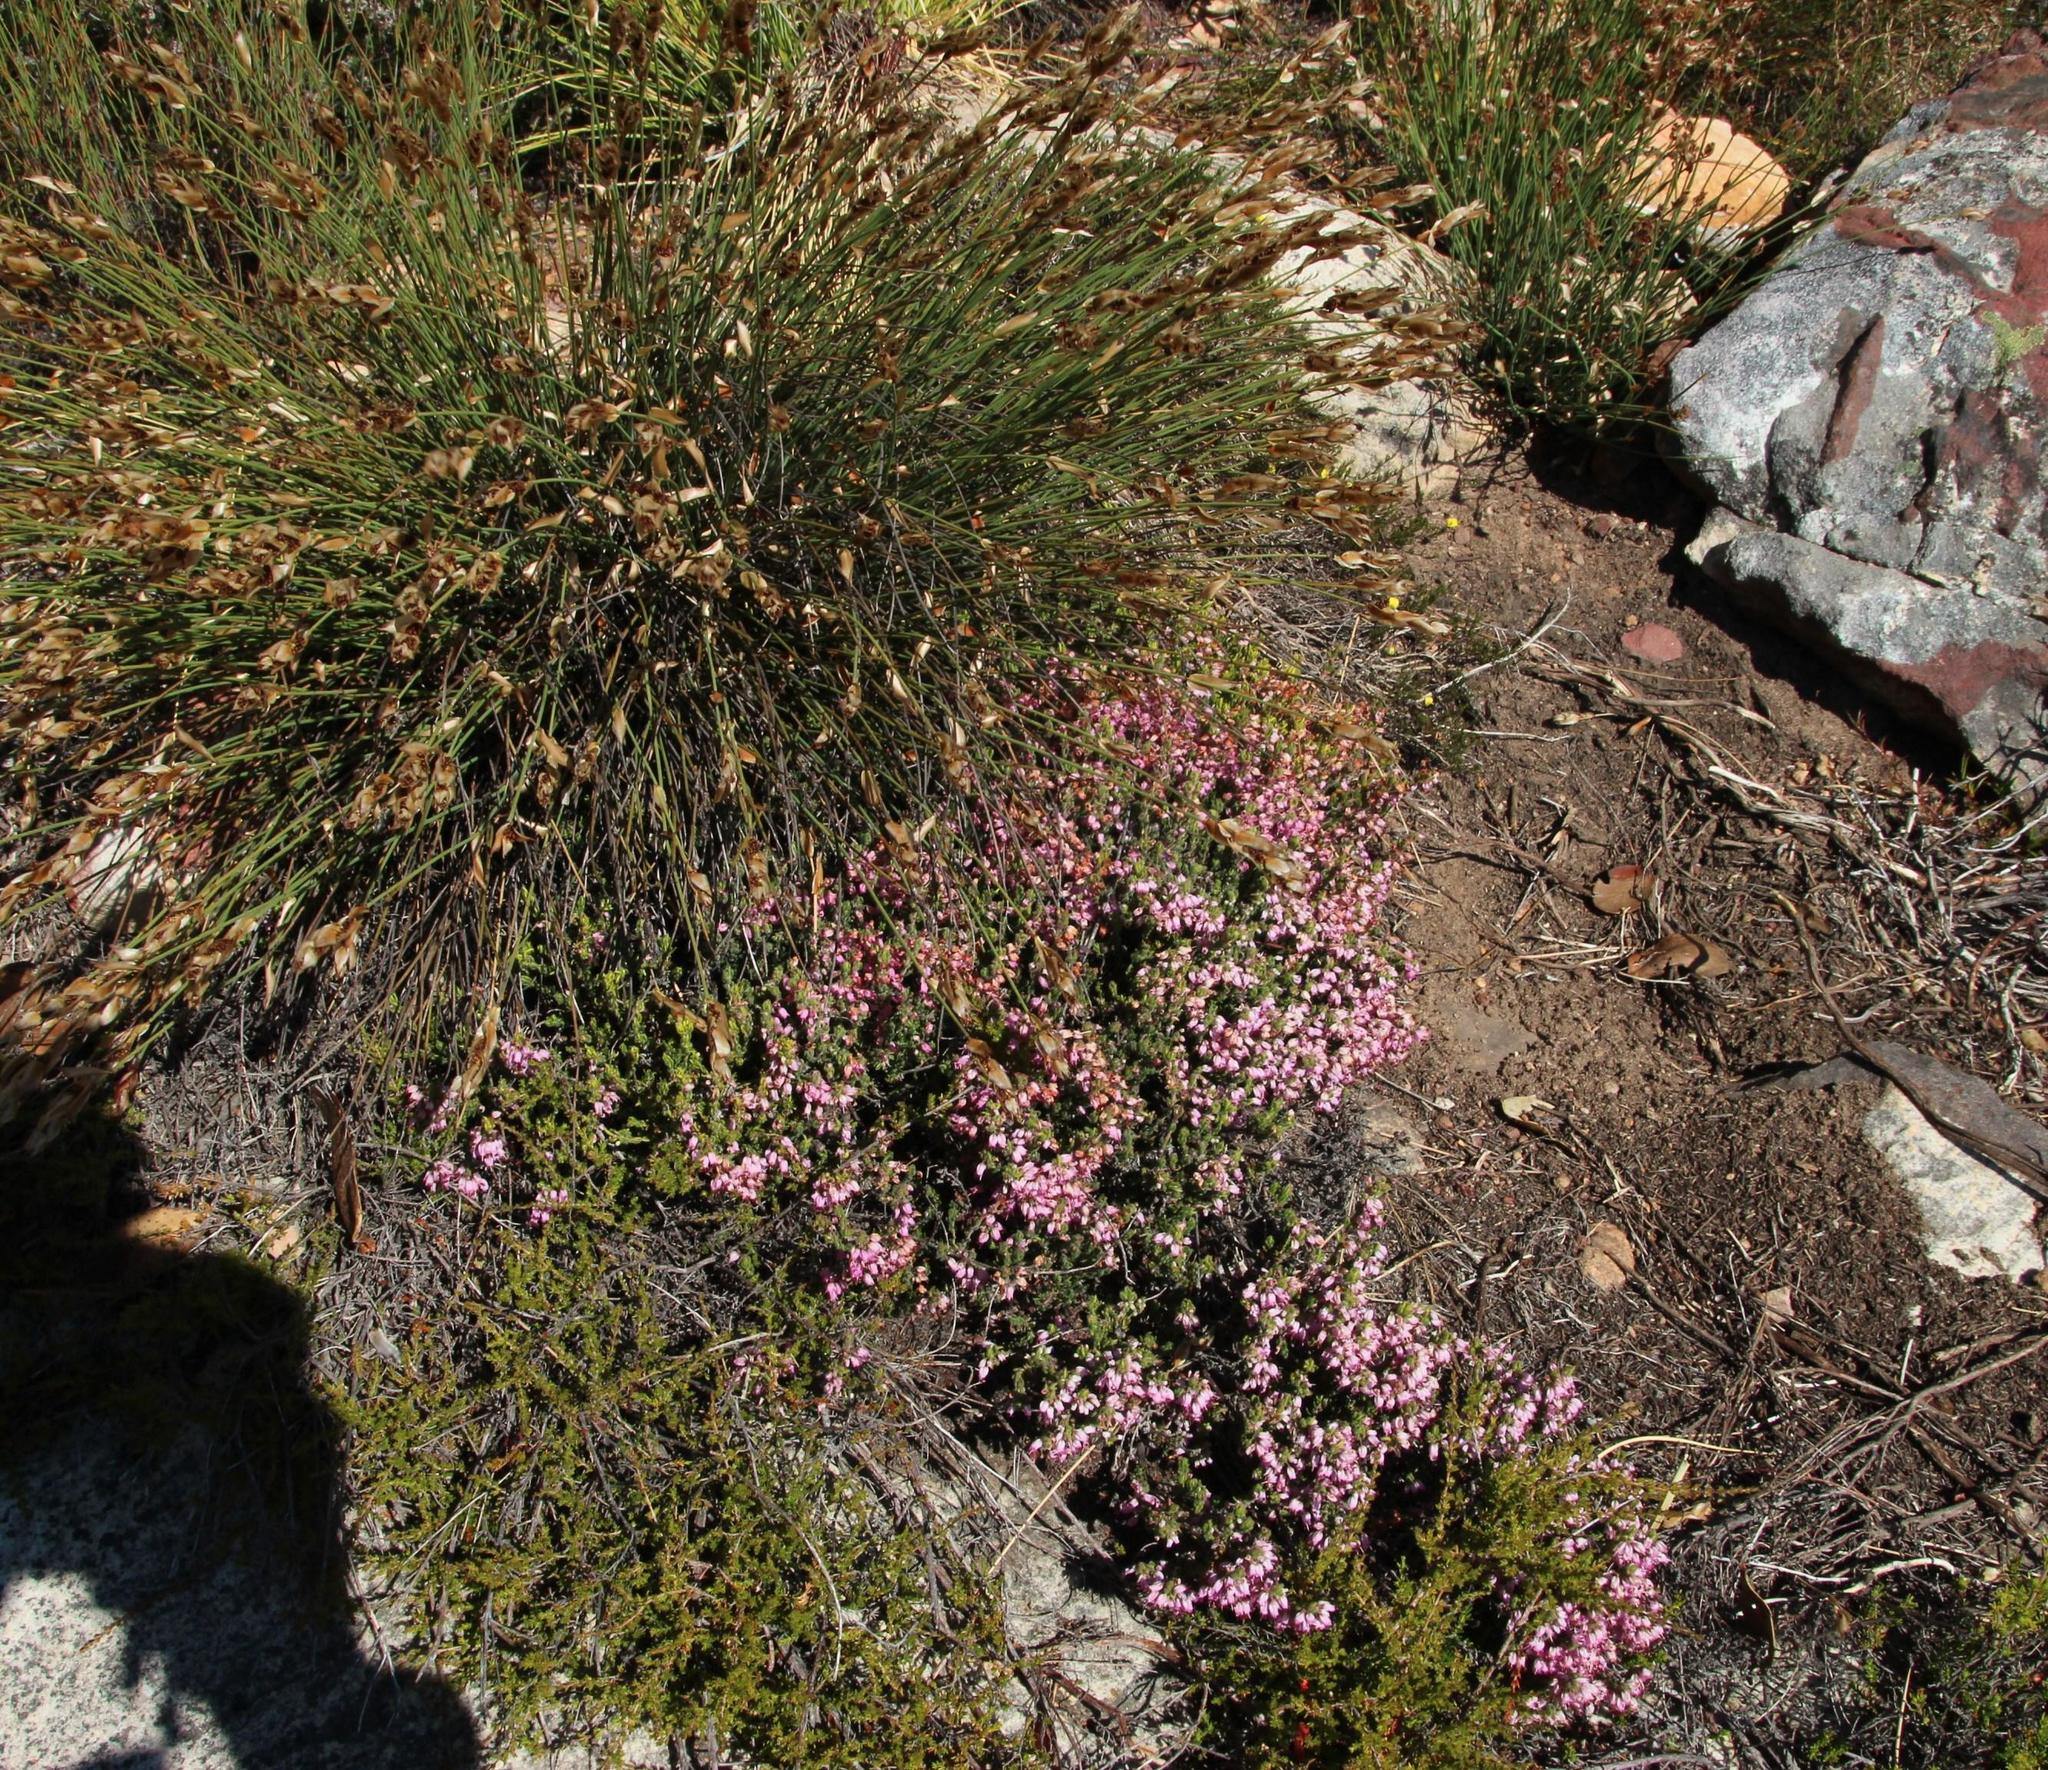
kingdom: Plantae
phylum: Tracheophyta
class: Magnoliopsida
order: Ericales
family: Ericaceae
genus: Erica
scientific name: Erica nudiflora
